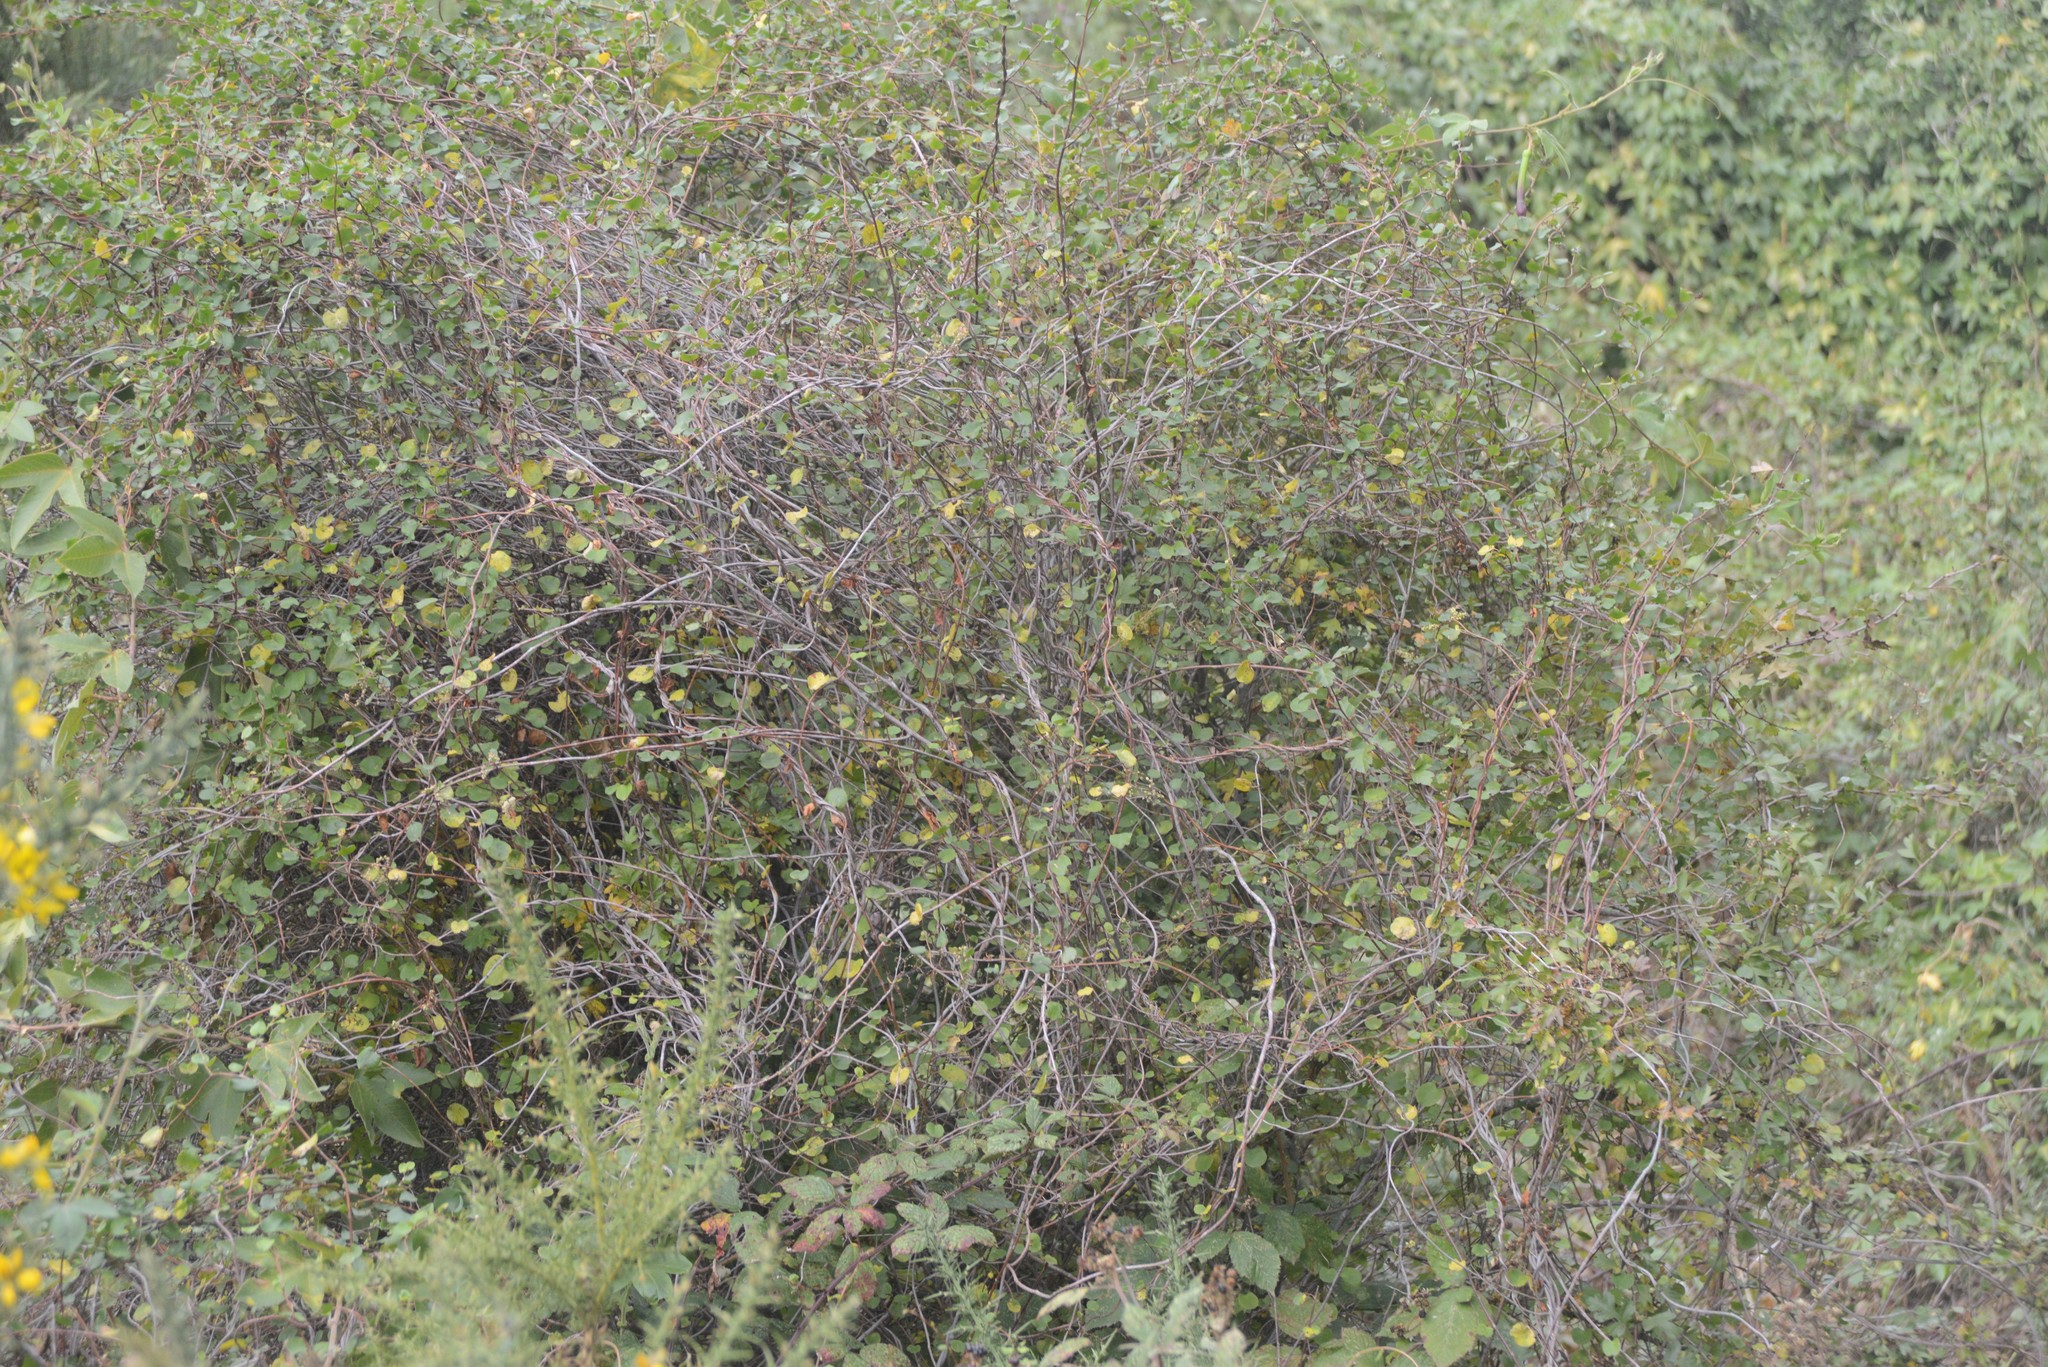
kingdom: Plantae
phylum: Tracheophyta
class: Magnoliopsida
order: Caryophyllales
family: Polygonaceae
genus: Muehlenbeckia
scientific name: Muehlenbeckia australis
